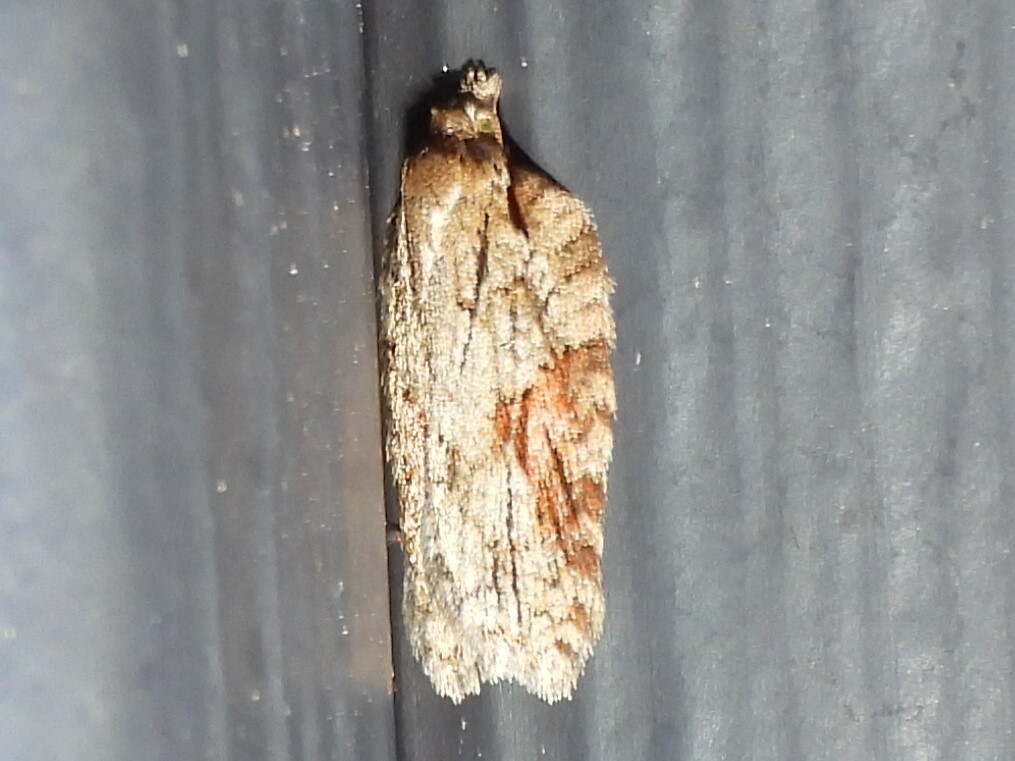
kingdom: Animalia
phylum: Arthropoda
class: Insecta
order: Lepidoptera
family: Tortricidae
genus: Acleris
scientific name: Acleris ptychogrammos
